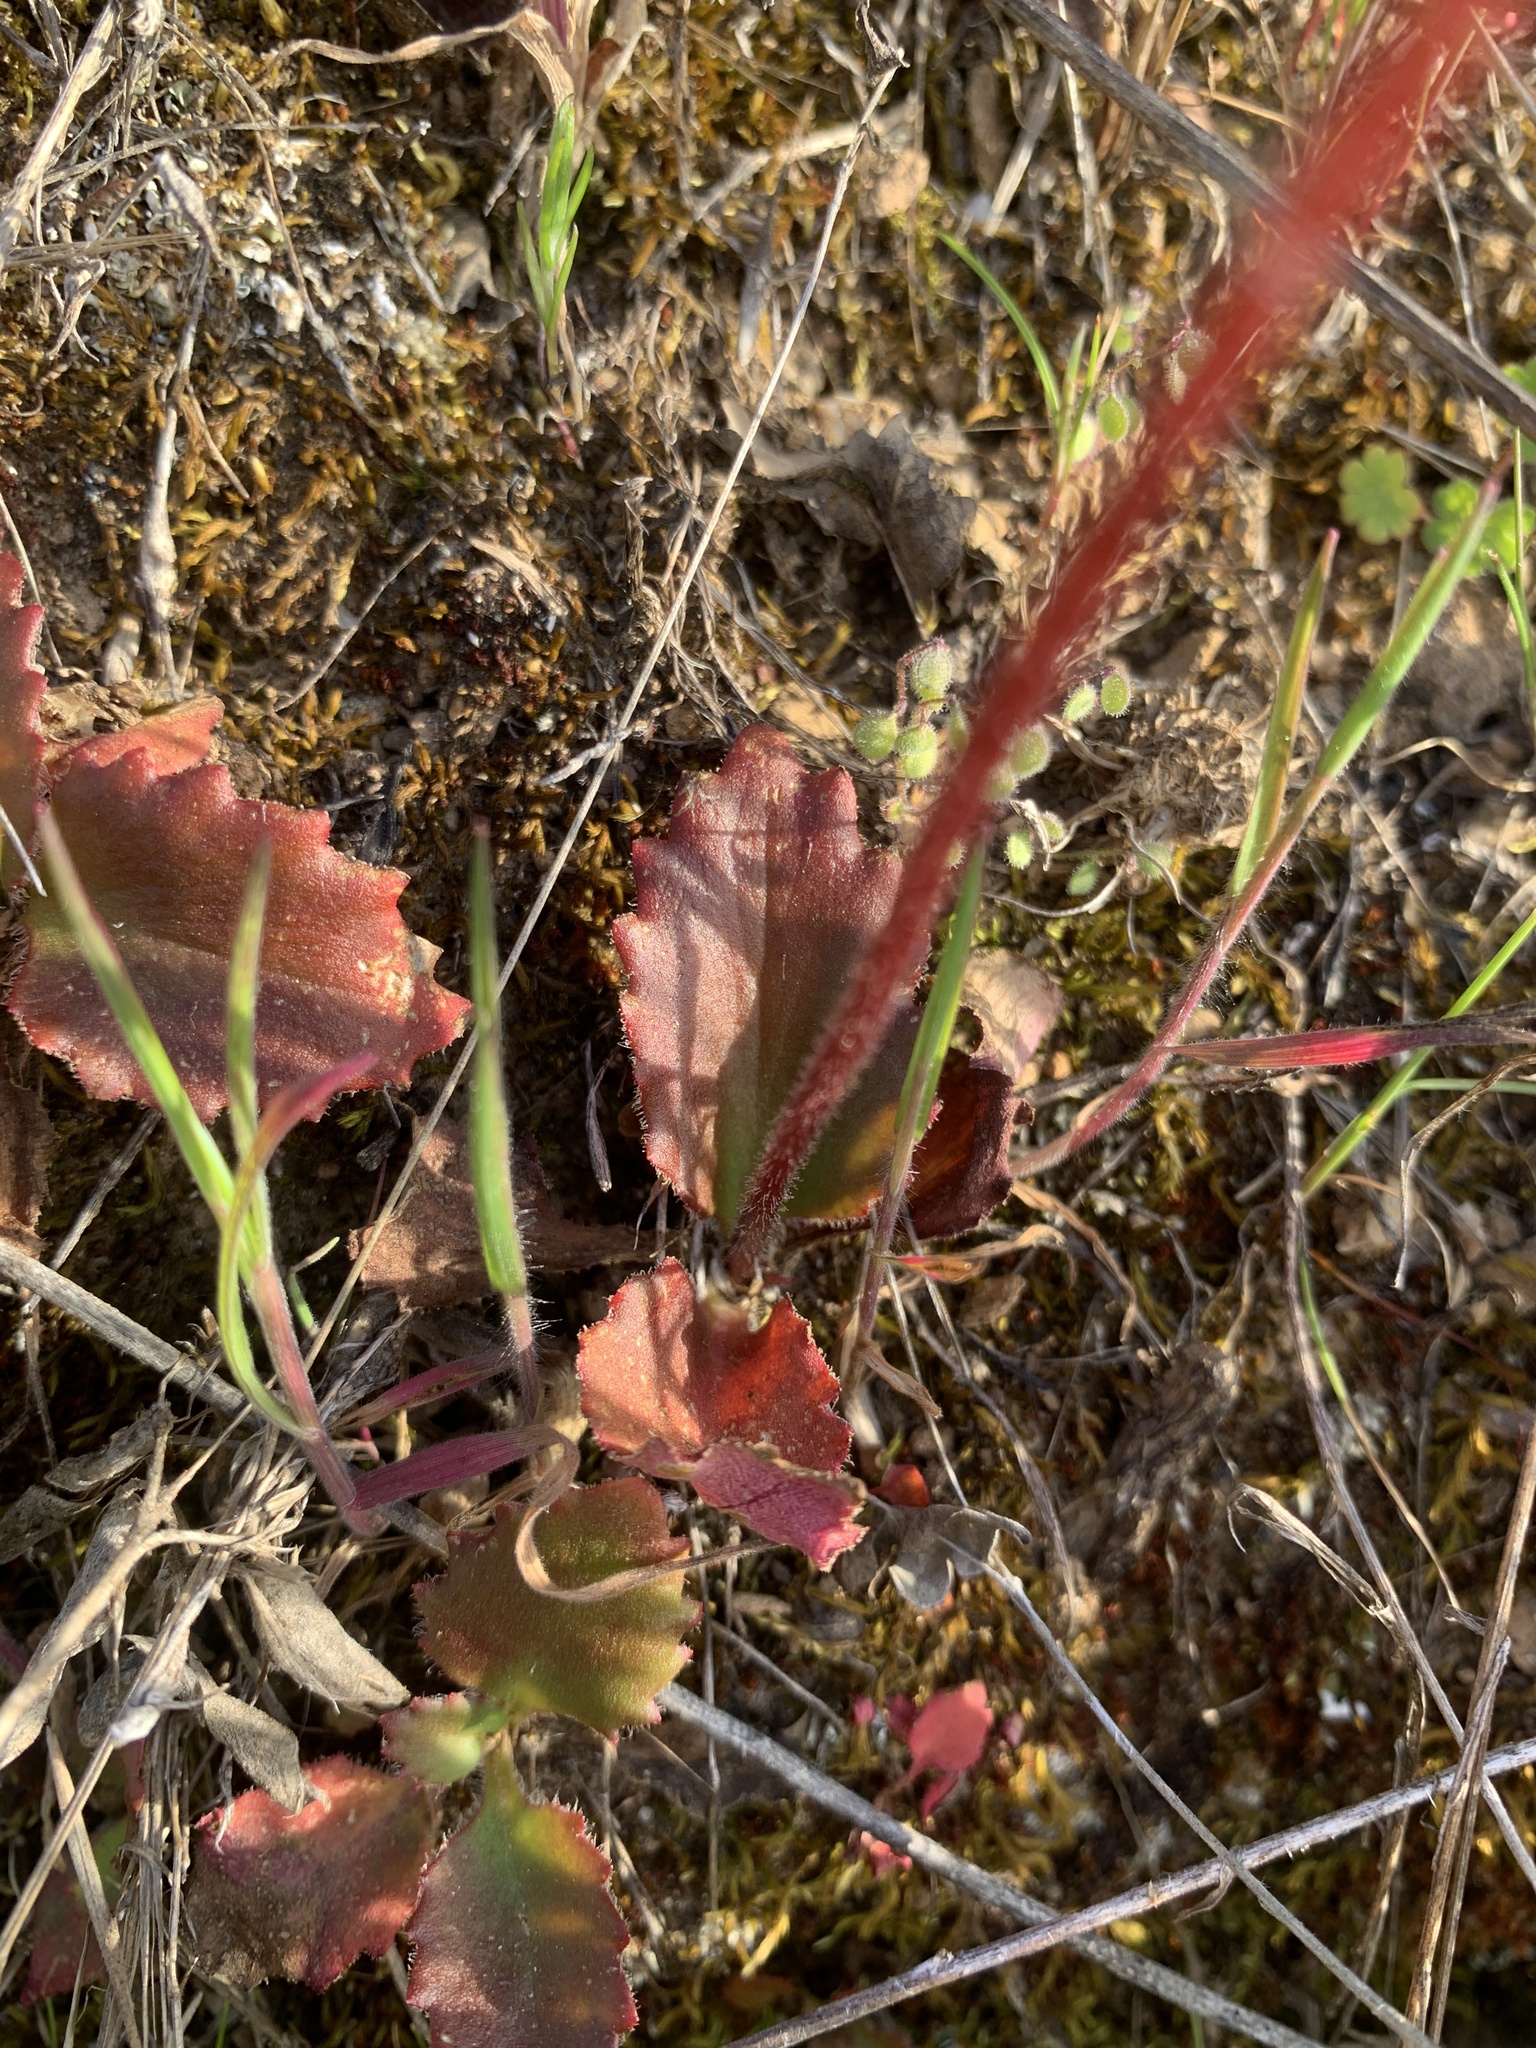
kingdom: Plantae
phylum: Tracheophyta
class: Magnoliopsida
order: Saxifragales
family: Saxifragaceae
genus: Micranthes
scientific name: Micranthes californica
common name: California saxifrage
